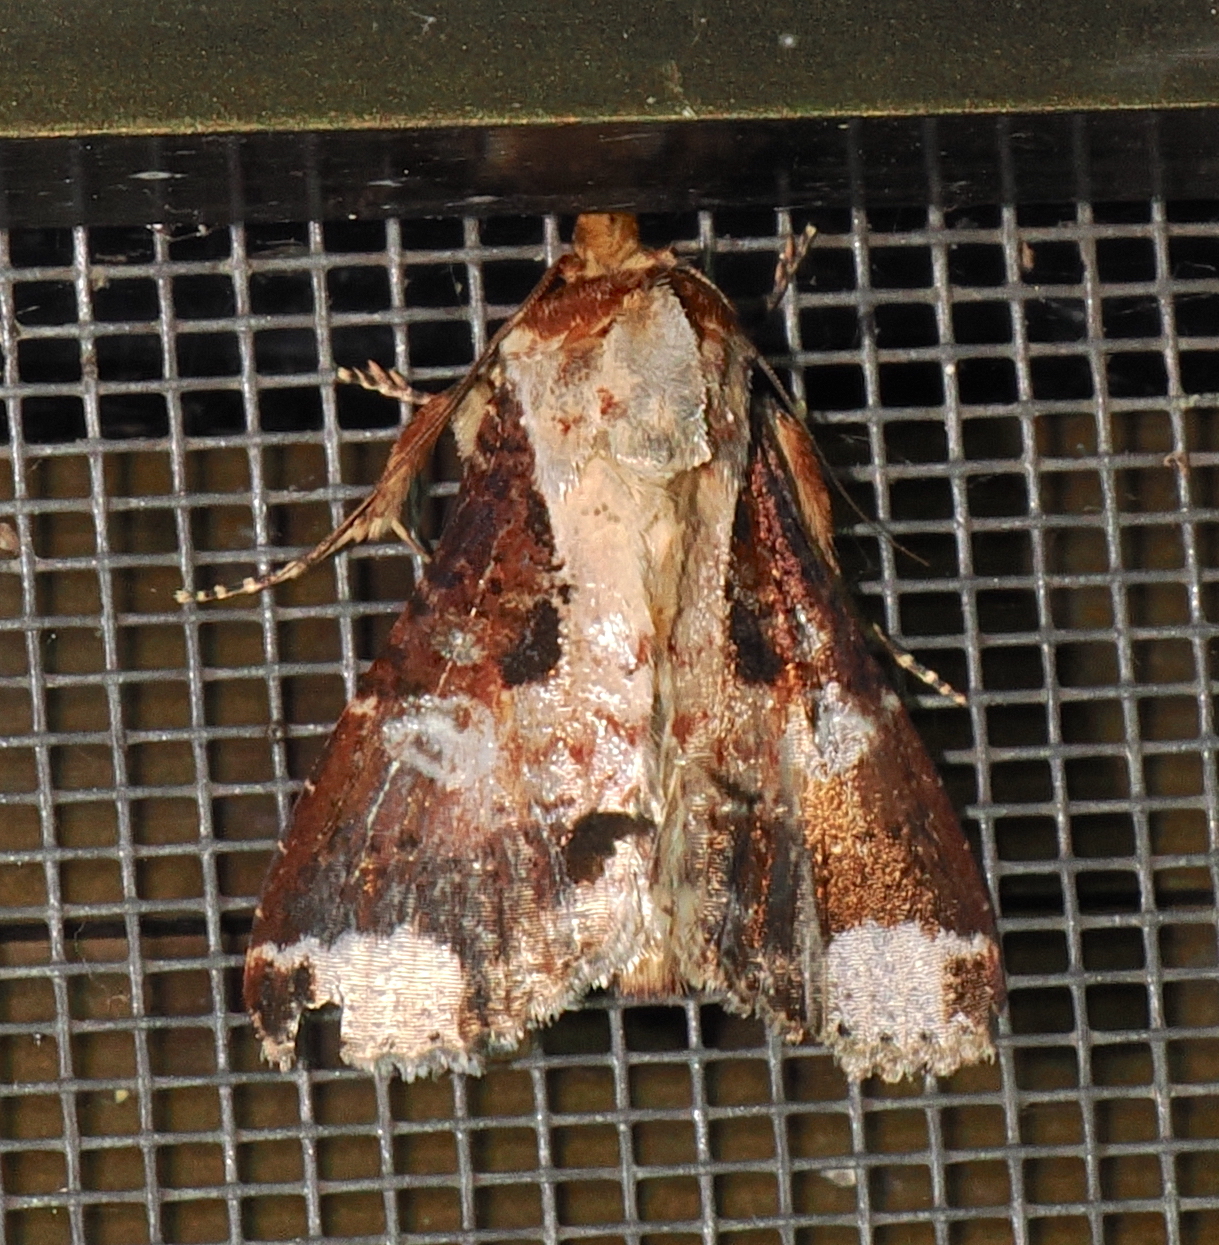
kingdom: Animalia
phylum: Arthropoda
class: Insecta
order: Lepidoptera
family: Noctuidae
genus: Condica
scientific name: Condica imitata
